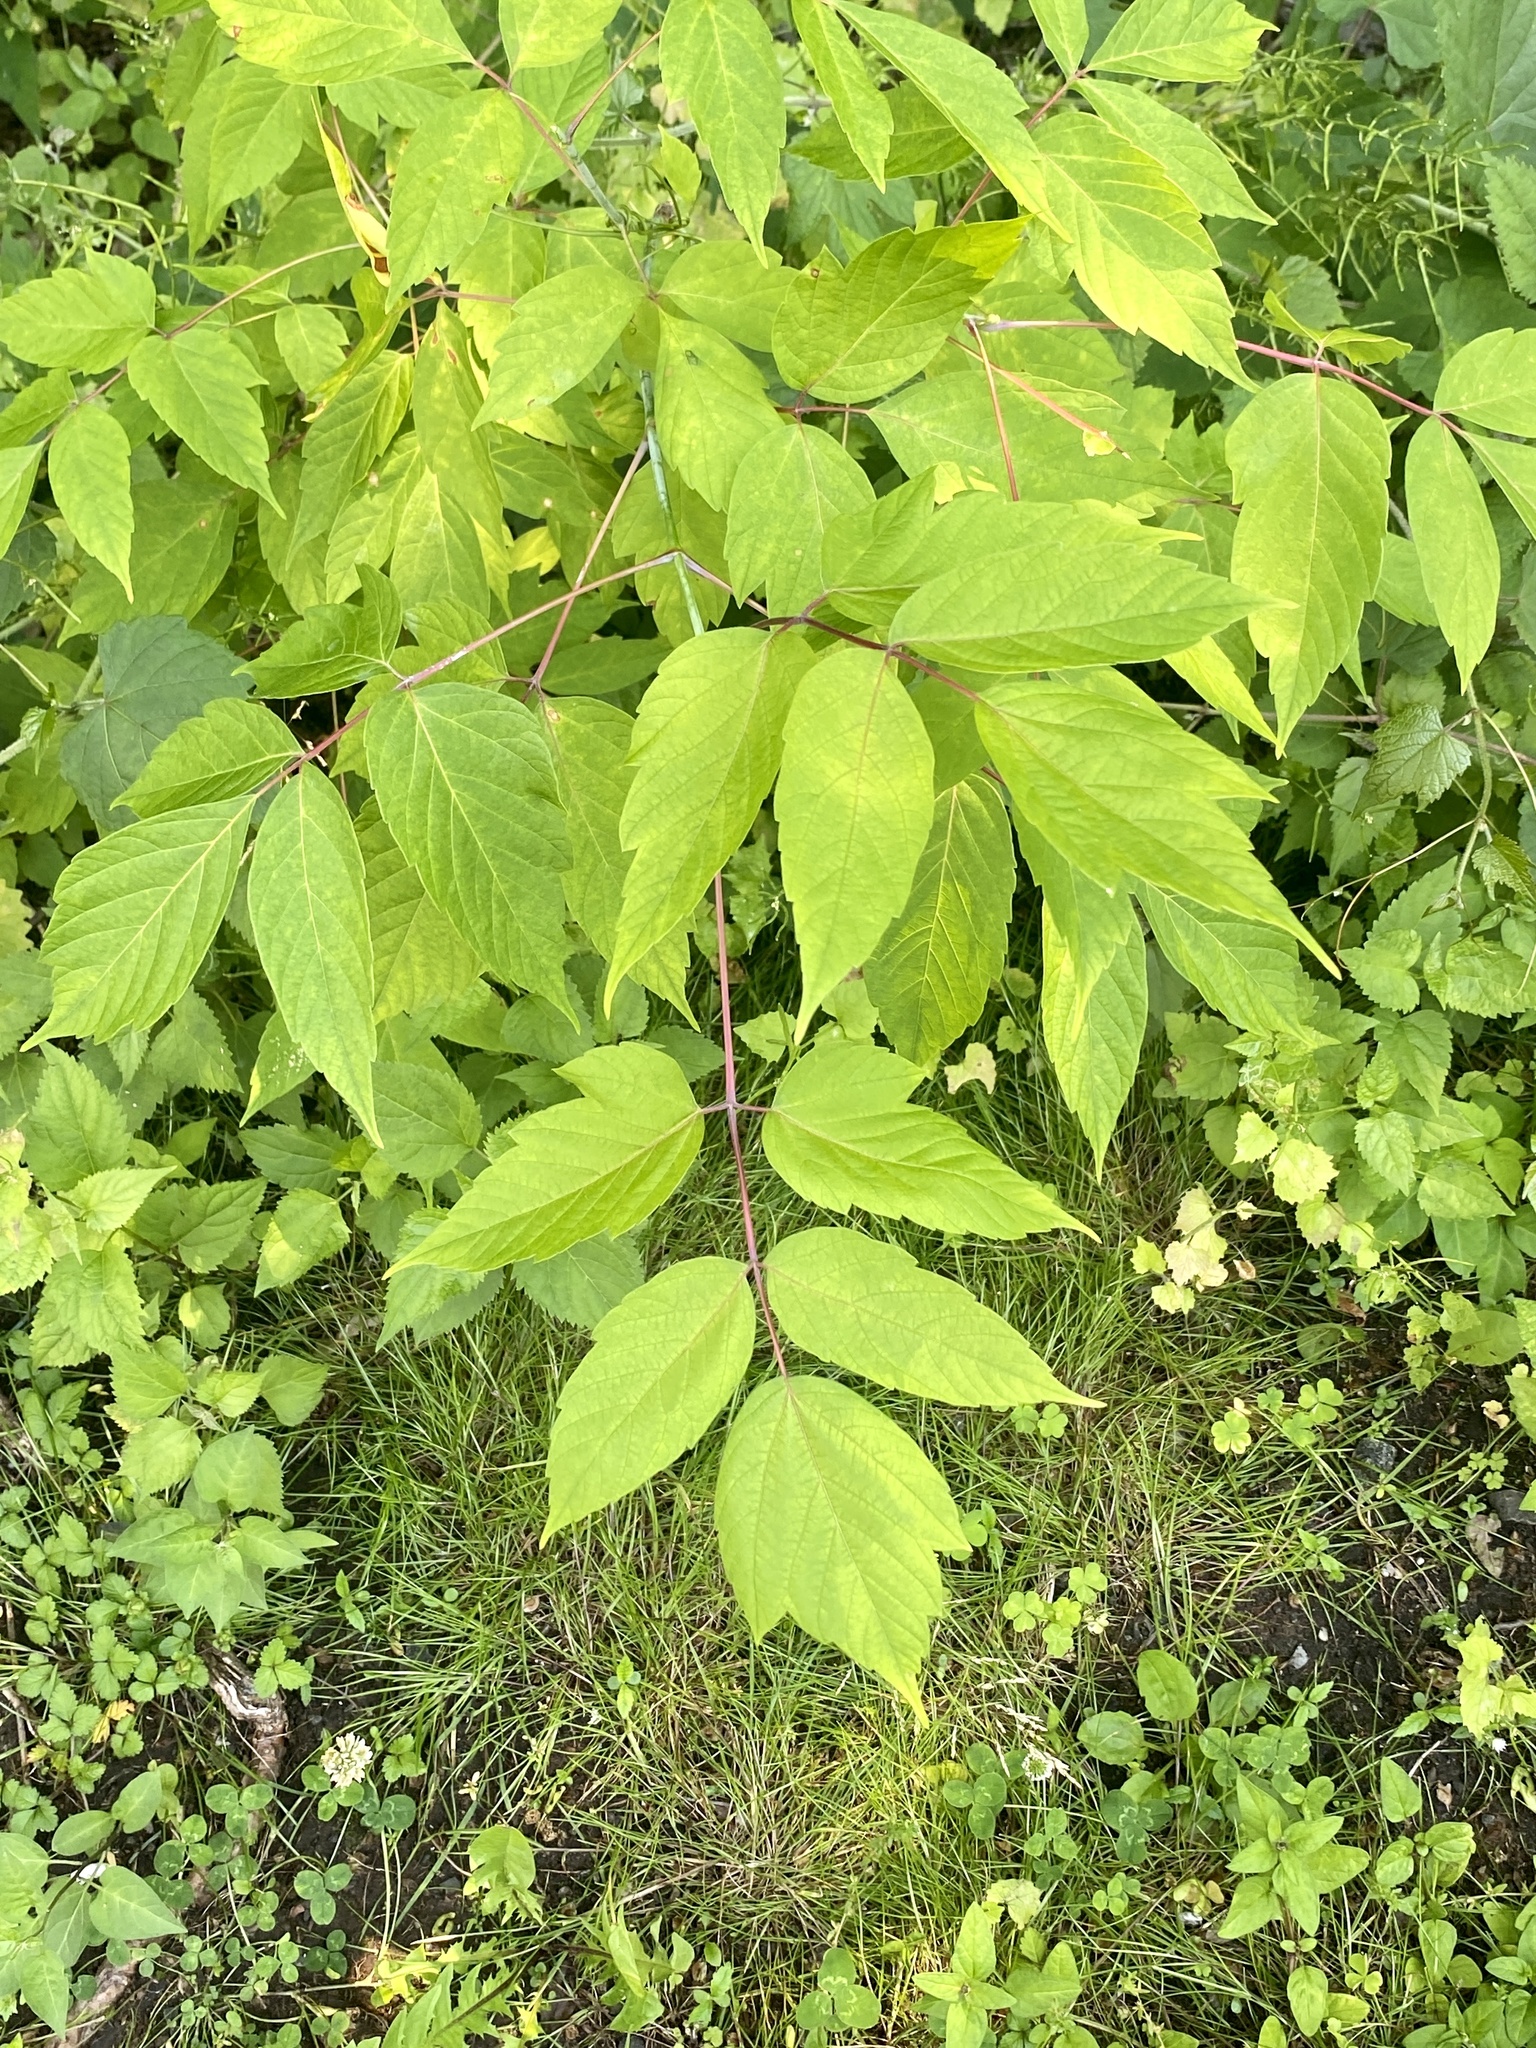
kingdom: Plantae
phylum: Tracheophyta
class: Magnoliopsida
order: Sapindales
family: Sapindaceae
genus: Acer
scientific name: Acer negundo
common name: Ashleaf maple
